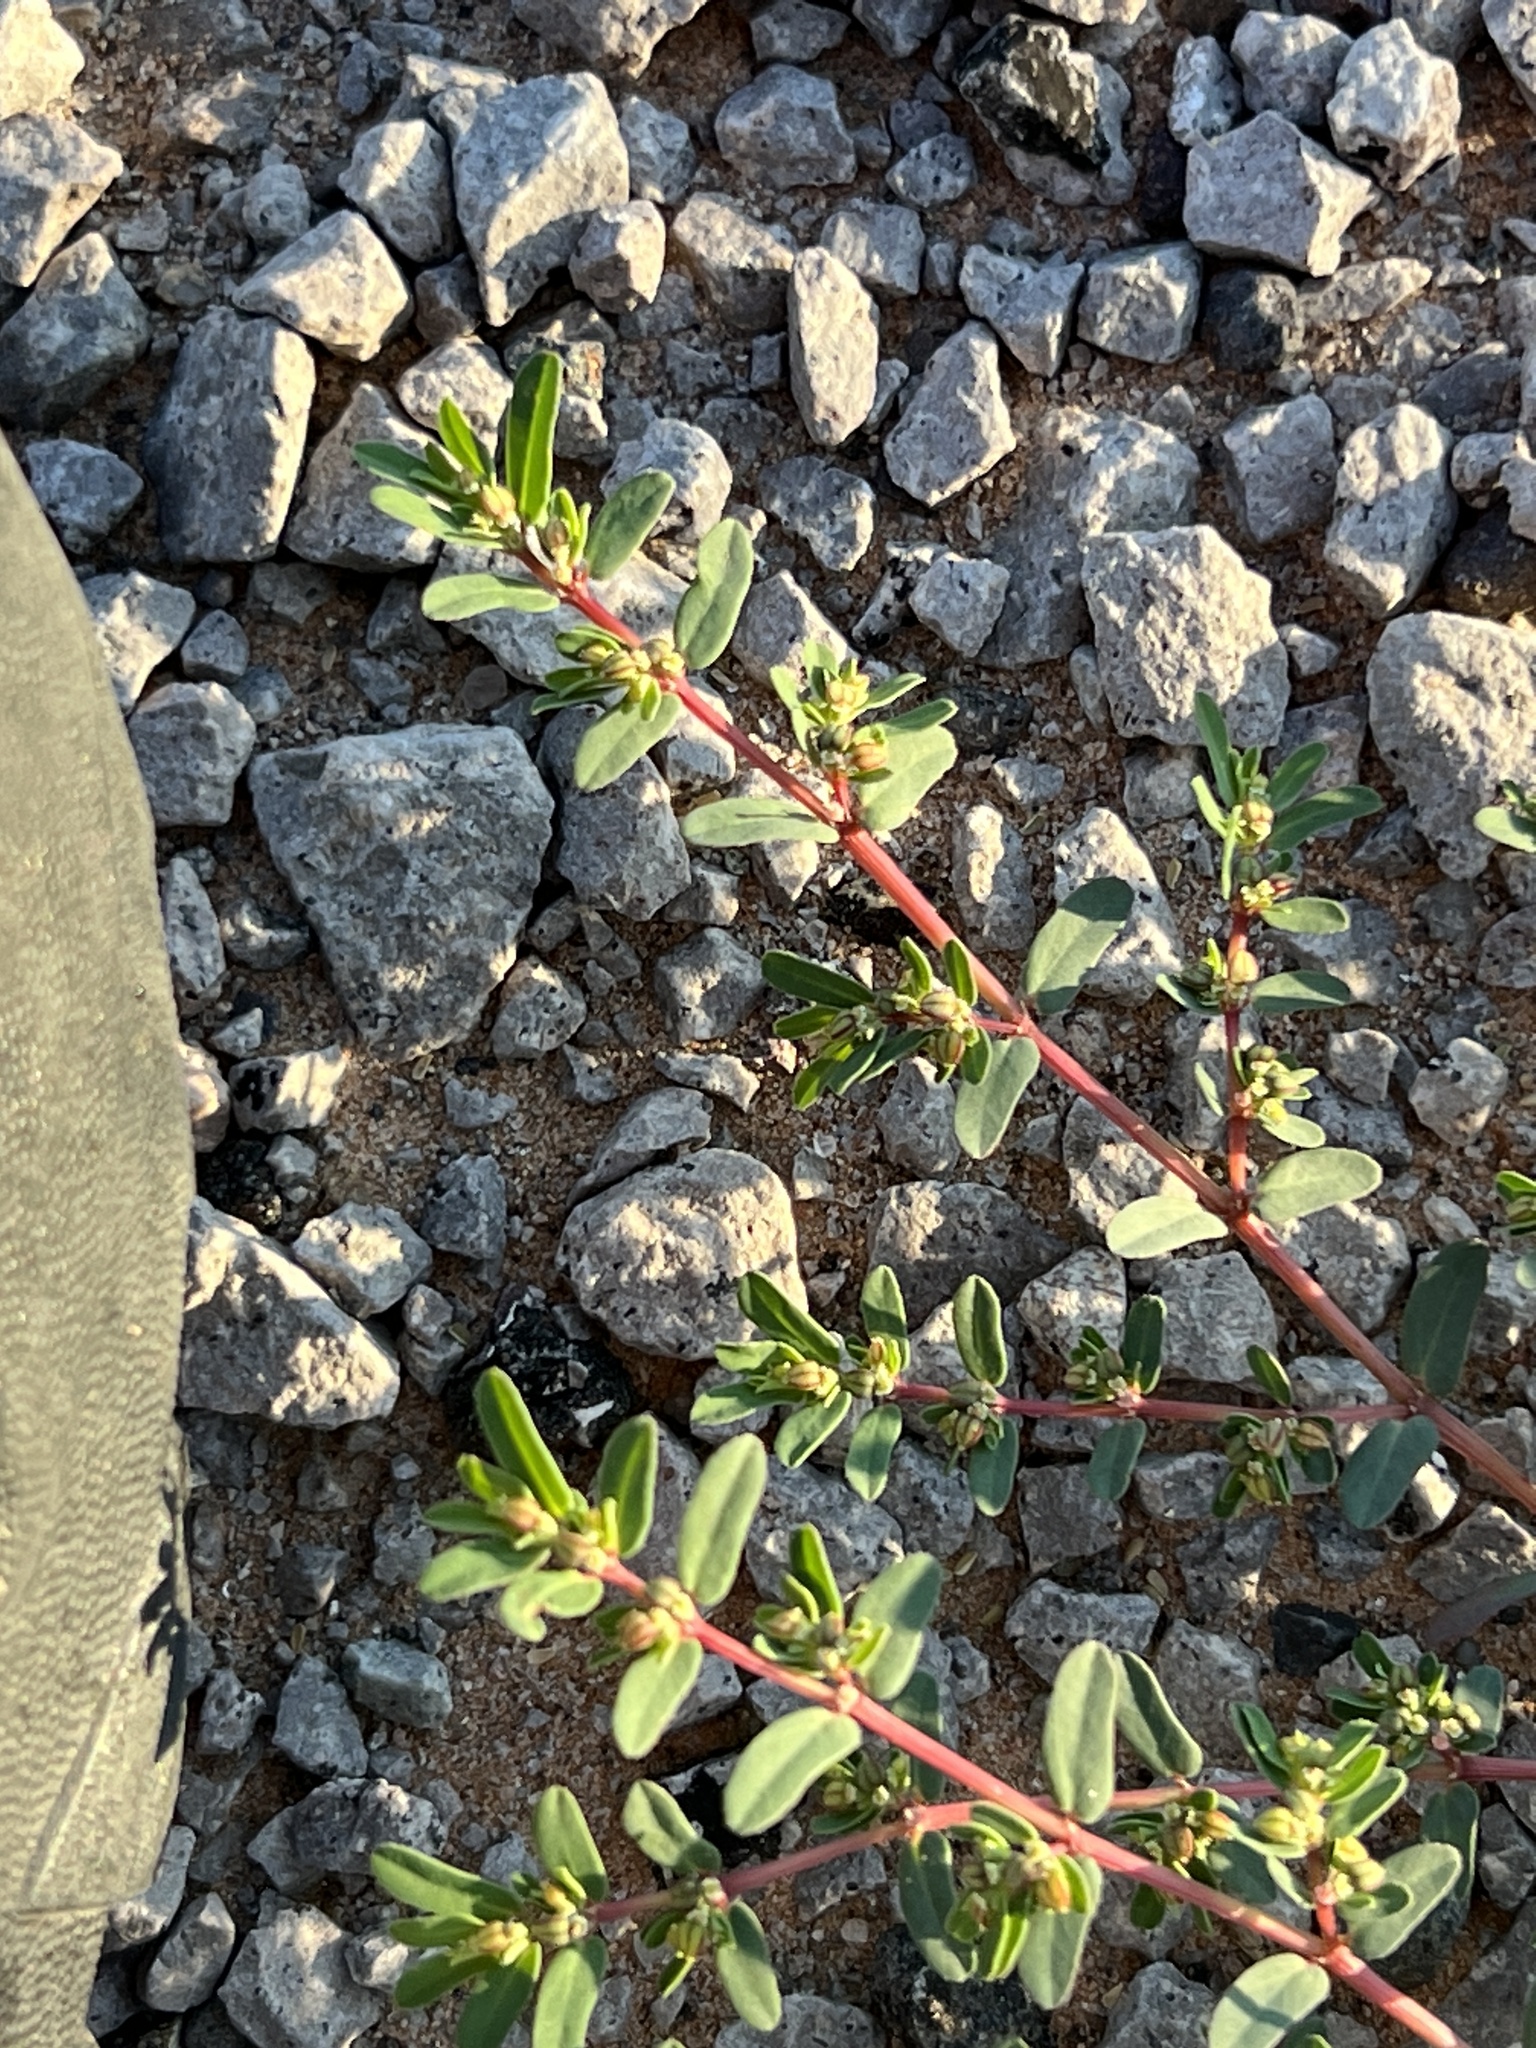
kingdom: Plantae
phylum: Tracheophyta
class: Magnoliopsida
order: Malpighiales
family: Euphorbiaceae
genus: Euphorbia
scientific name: Euphorbia serpillifolia
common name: Thyme-leaf spurge
